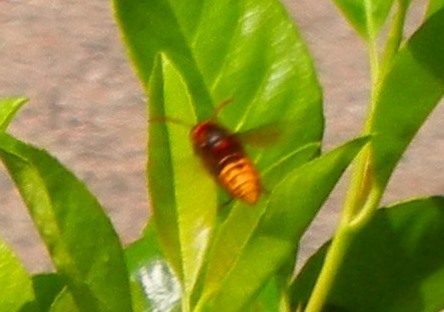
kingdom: Animalia
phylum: Arthropoda
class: Insecta
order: Hymenoptera
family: Vespidae
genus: Vespa
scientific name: Vespa crabro
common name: Hornet
